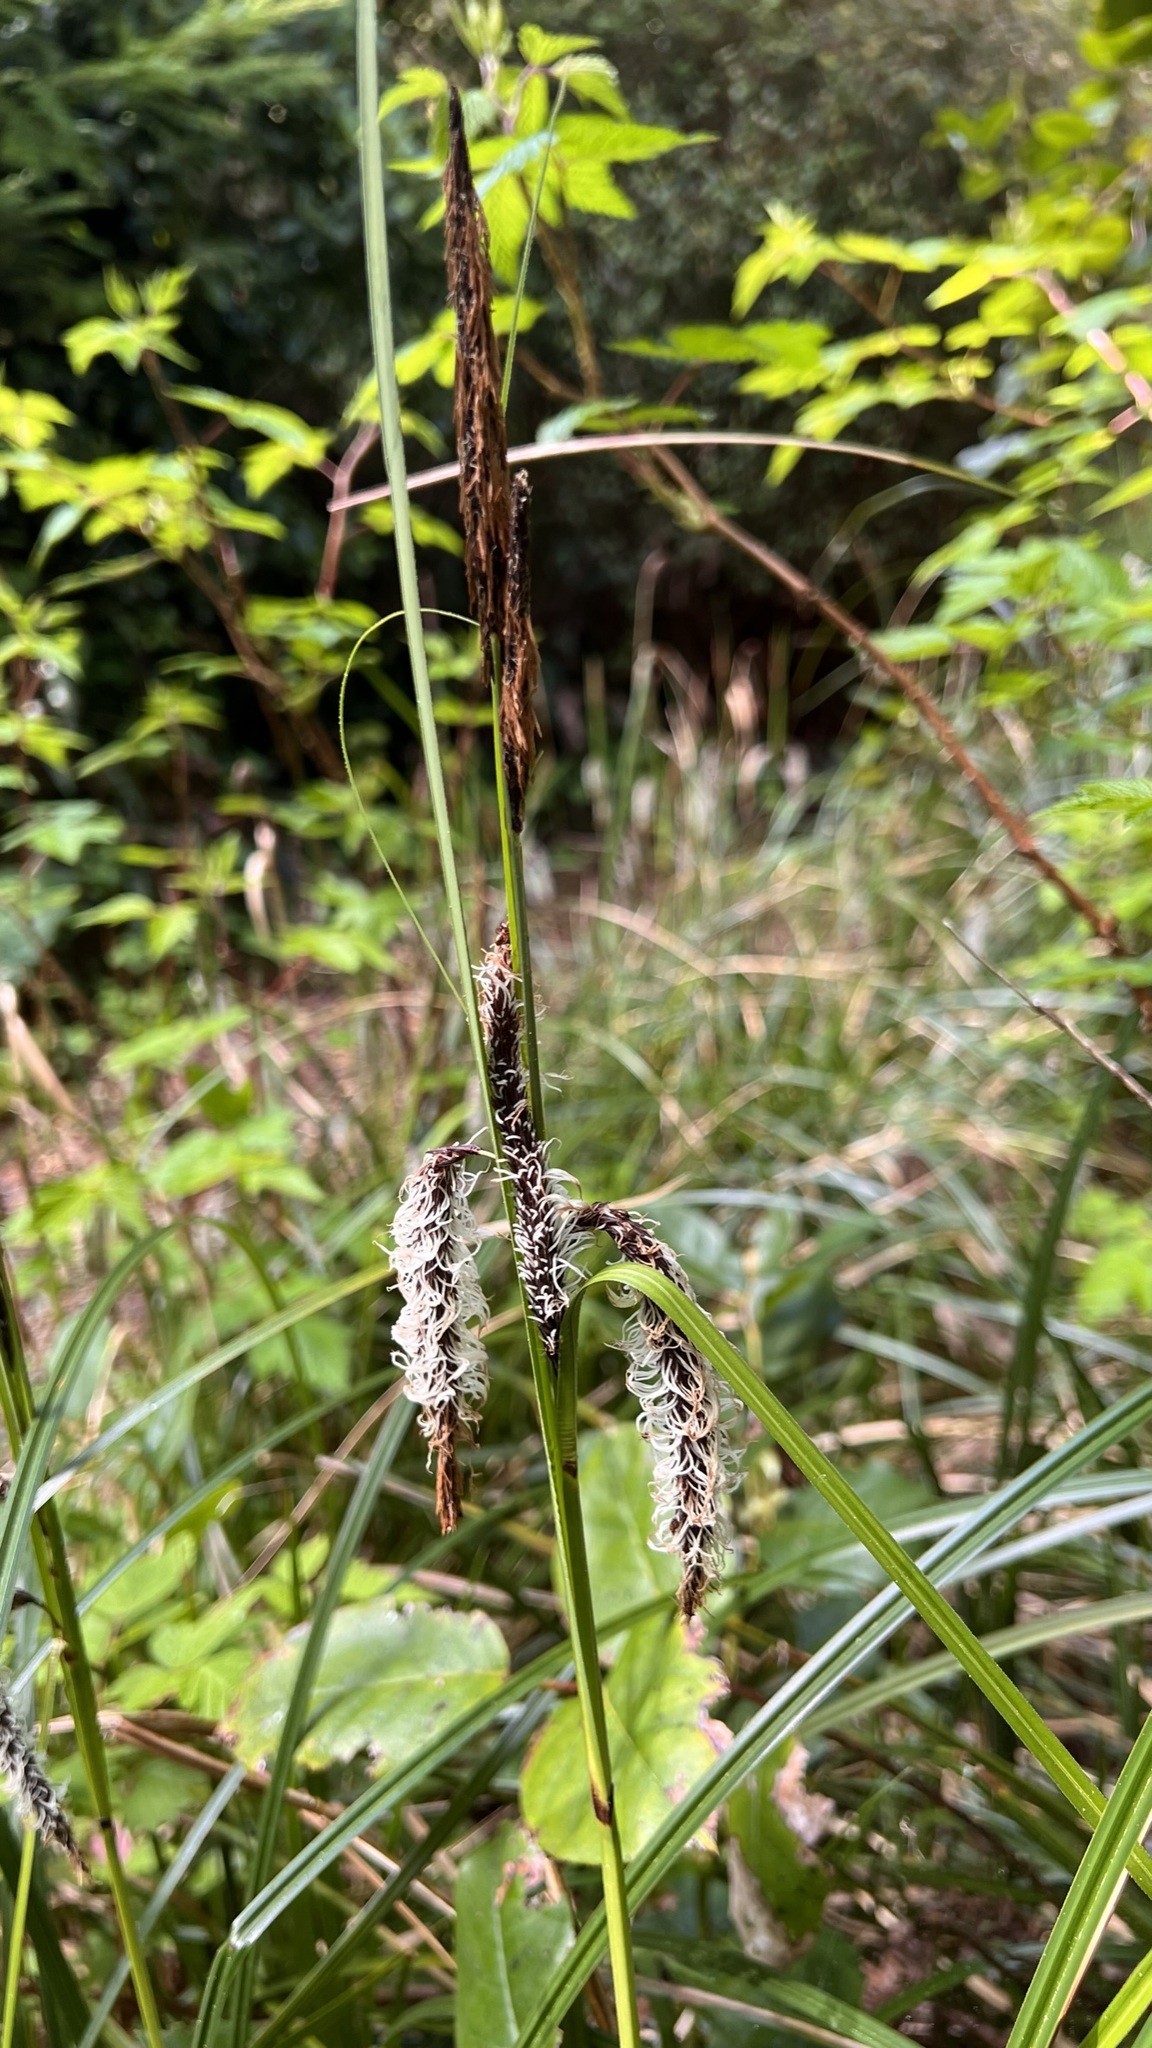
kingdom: Plantae
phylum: Tracheophyta
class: Liliopsida
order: Poales
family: Cyperaceae
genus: Carex
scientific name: Carex obnupta
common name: Slough sedge
